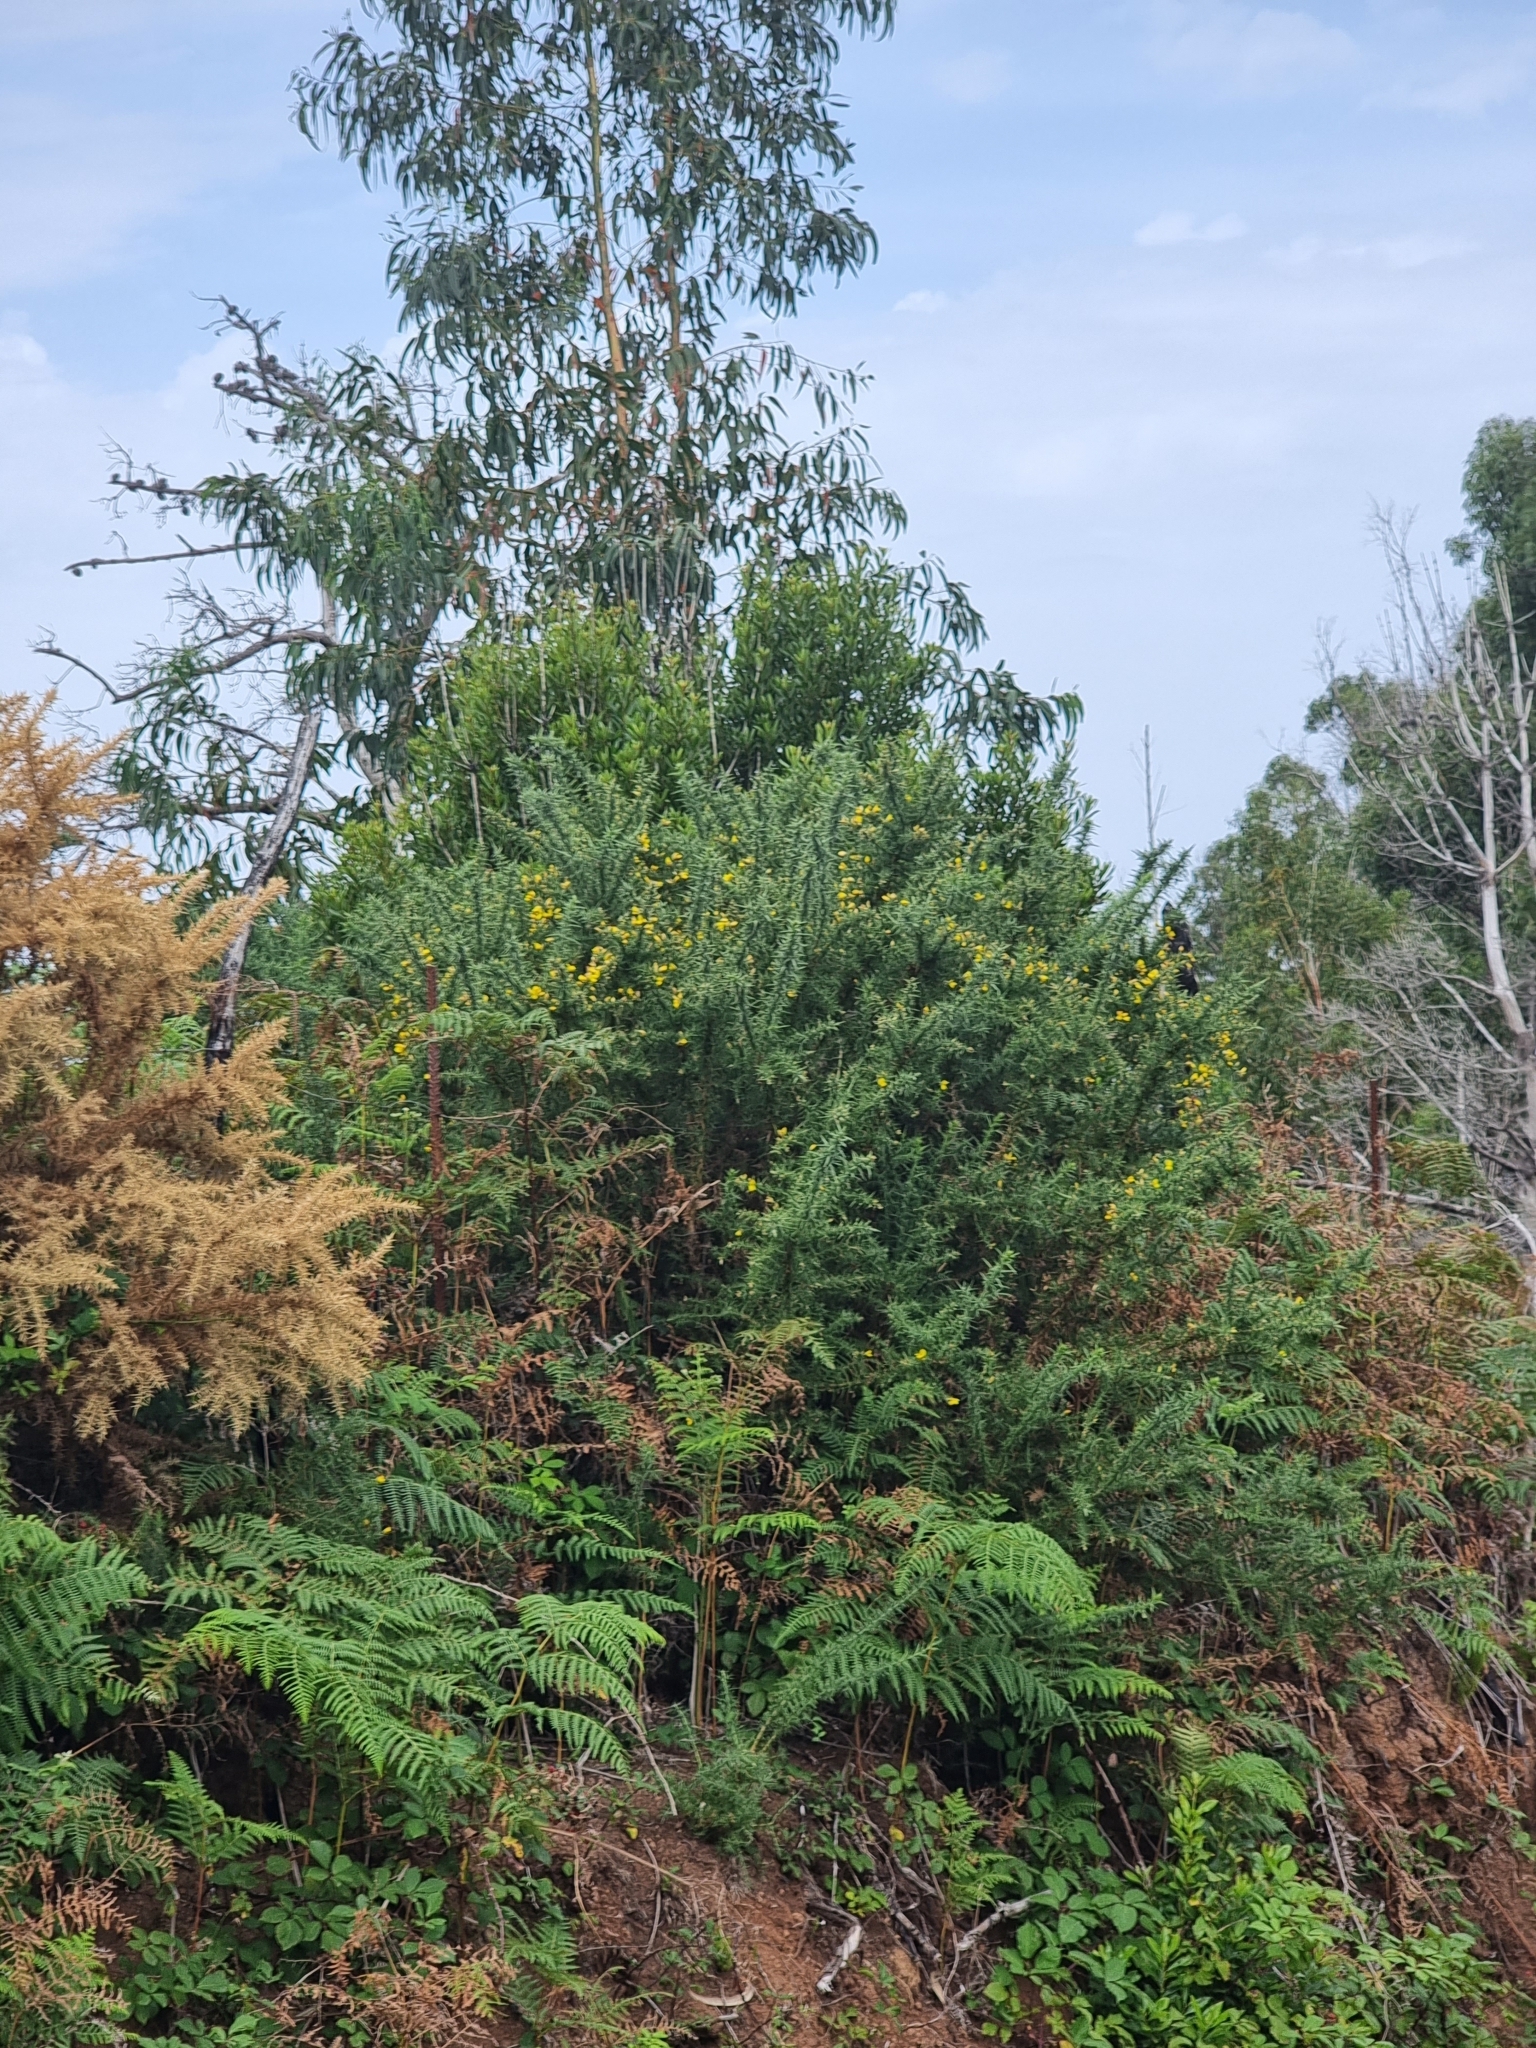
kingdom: Plantae
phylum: Tracheophyta
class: Magnoliopsida
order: Fabales
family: Fabaceae
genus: Ulex
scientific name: Ulex europaeus
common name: Common gorse
